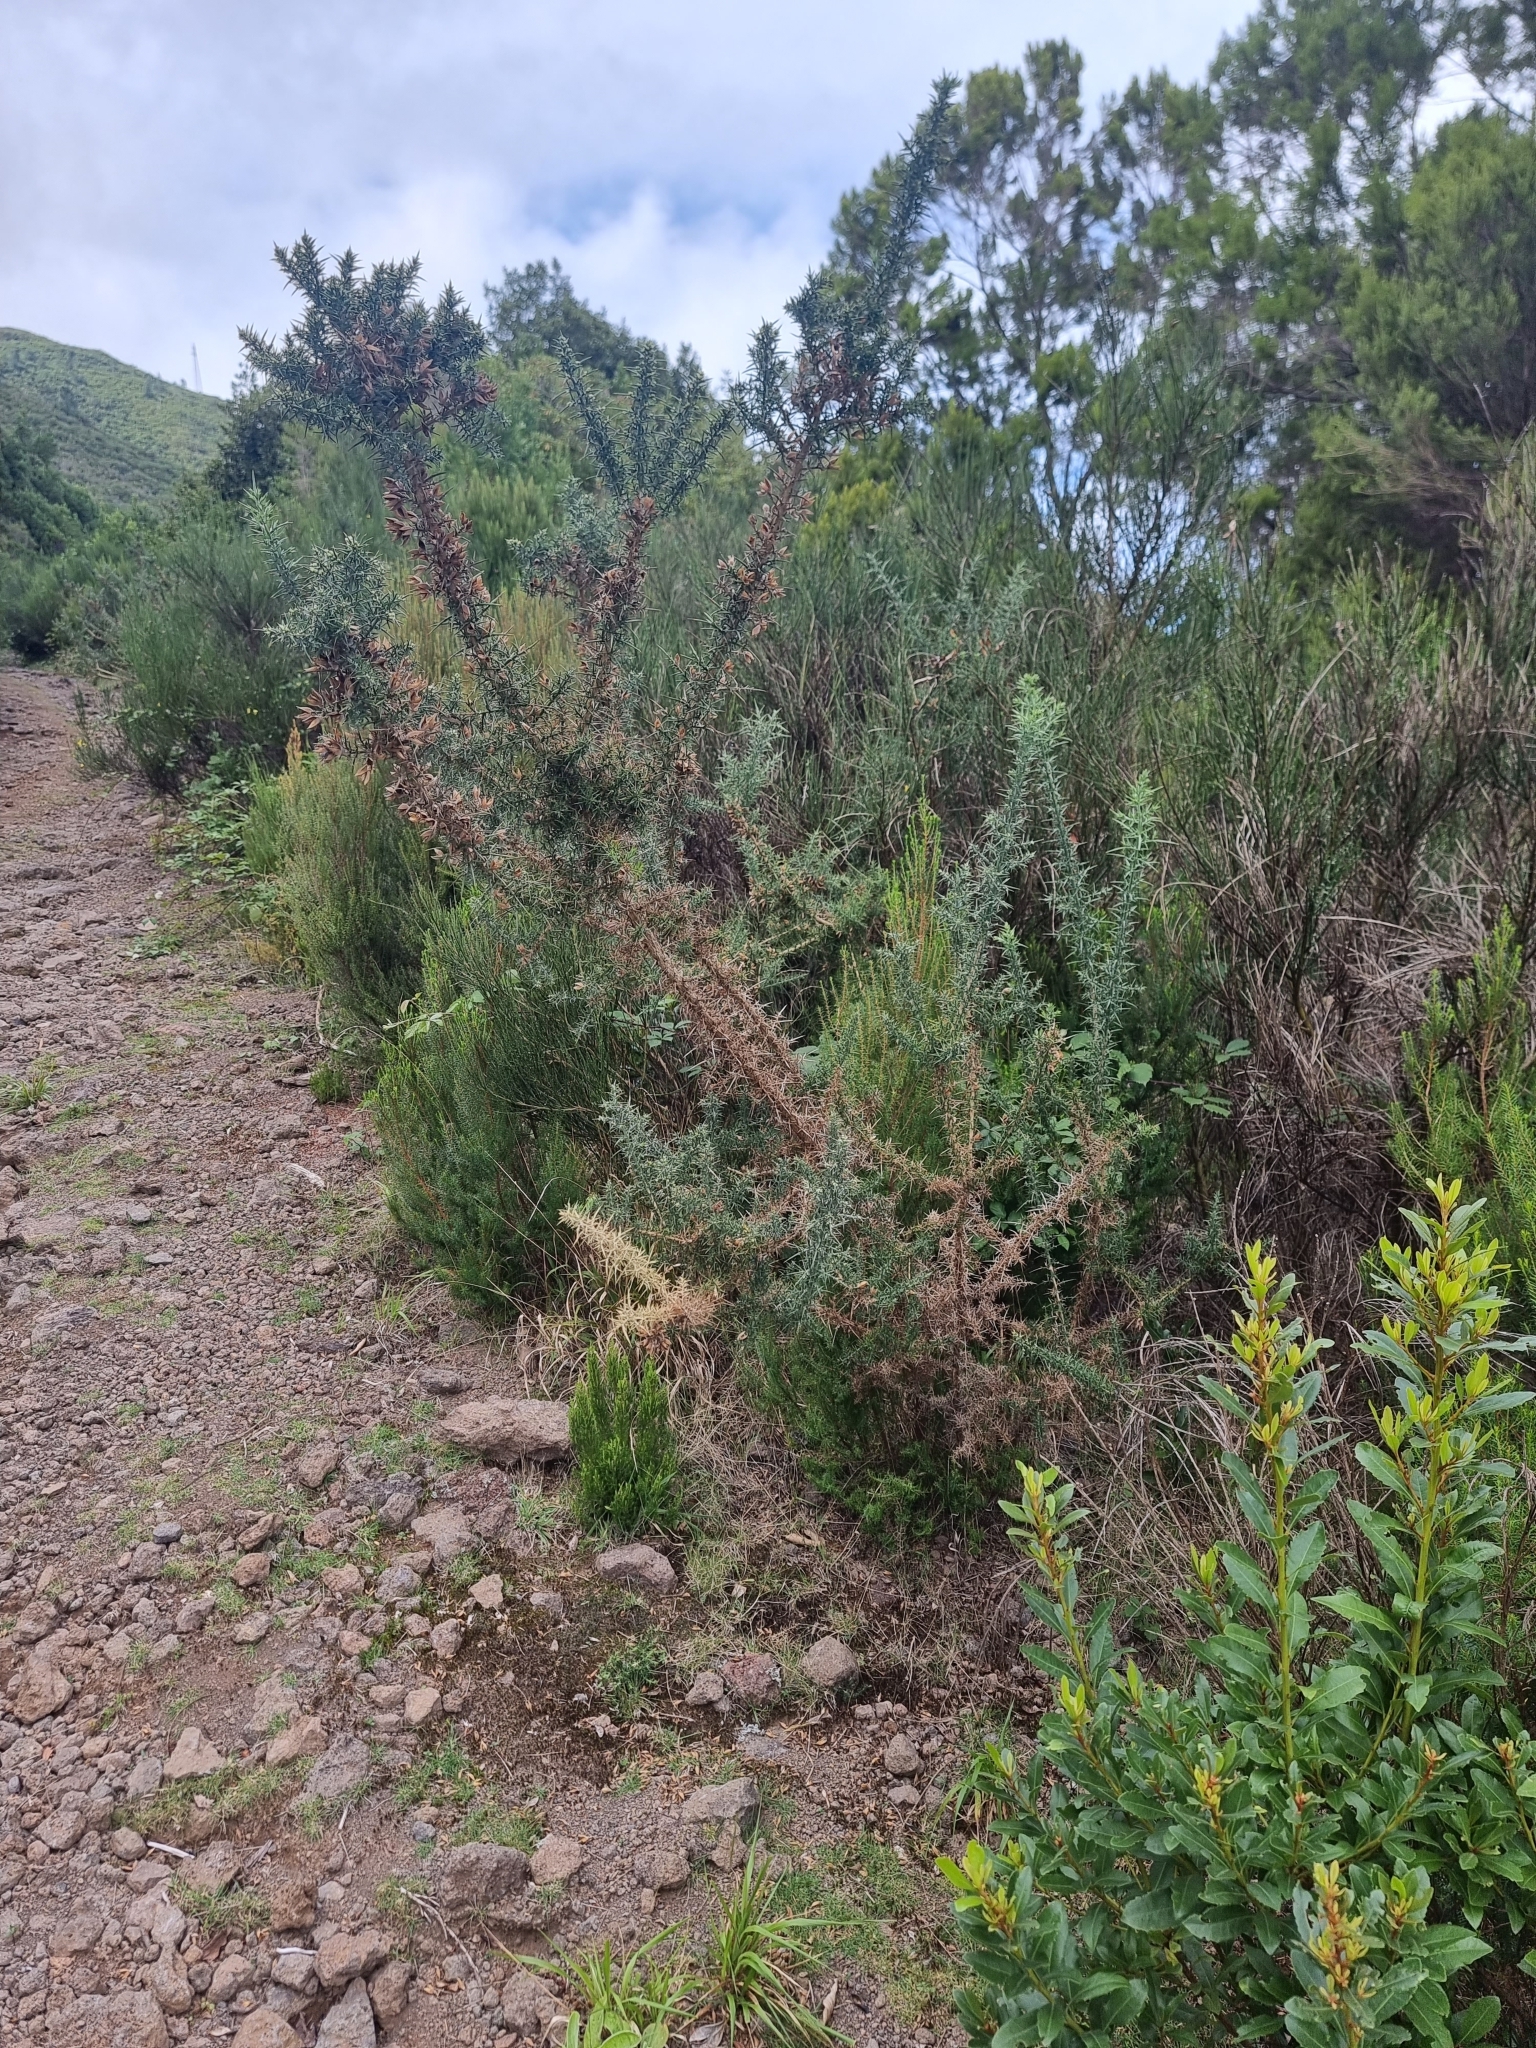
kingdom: Plantae
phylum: Tracheophyta
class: Magnoliopsida
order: Fabales
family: Fabaceae
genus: Ulex
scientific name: Ulex europaeus
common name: Common gorse
